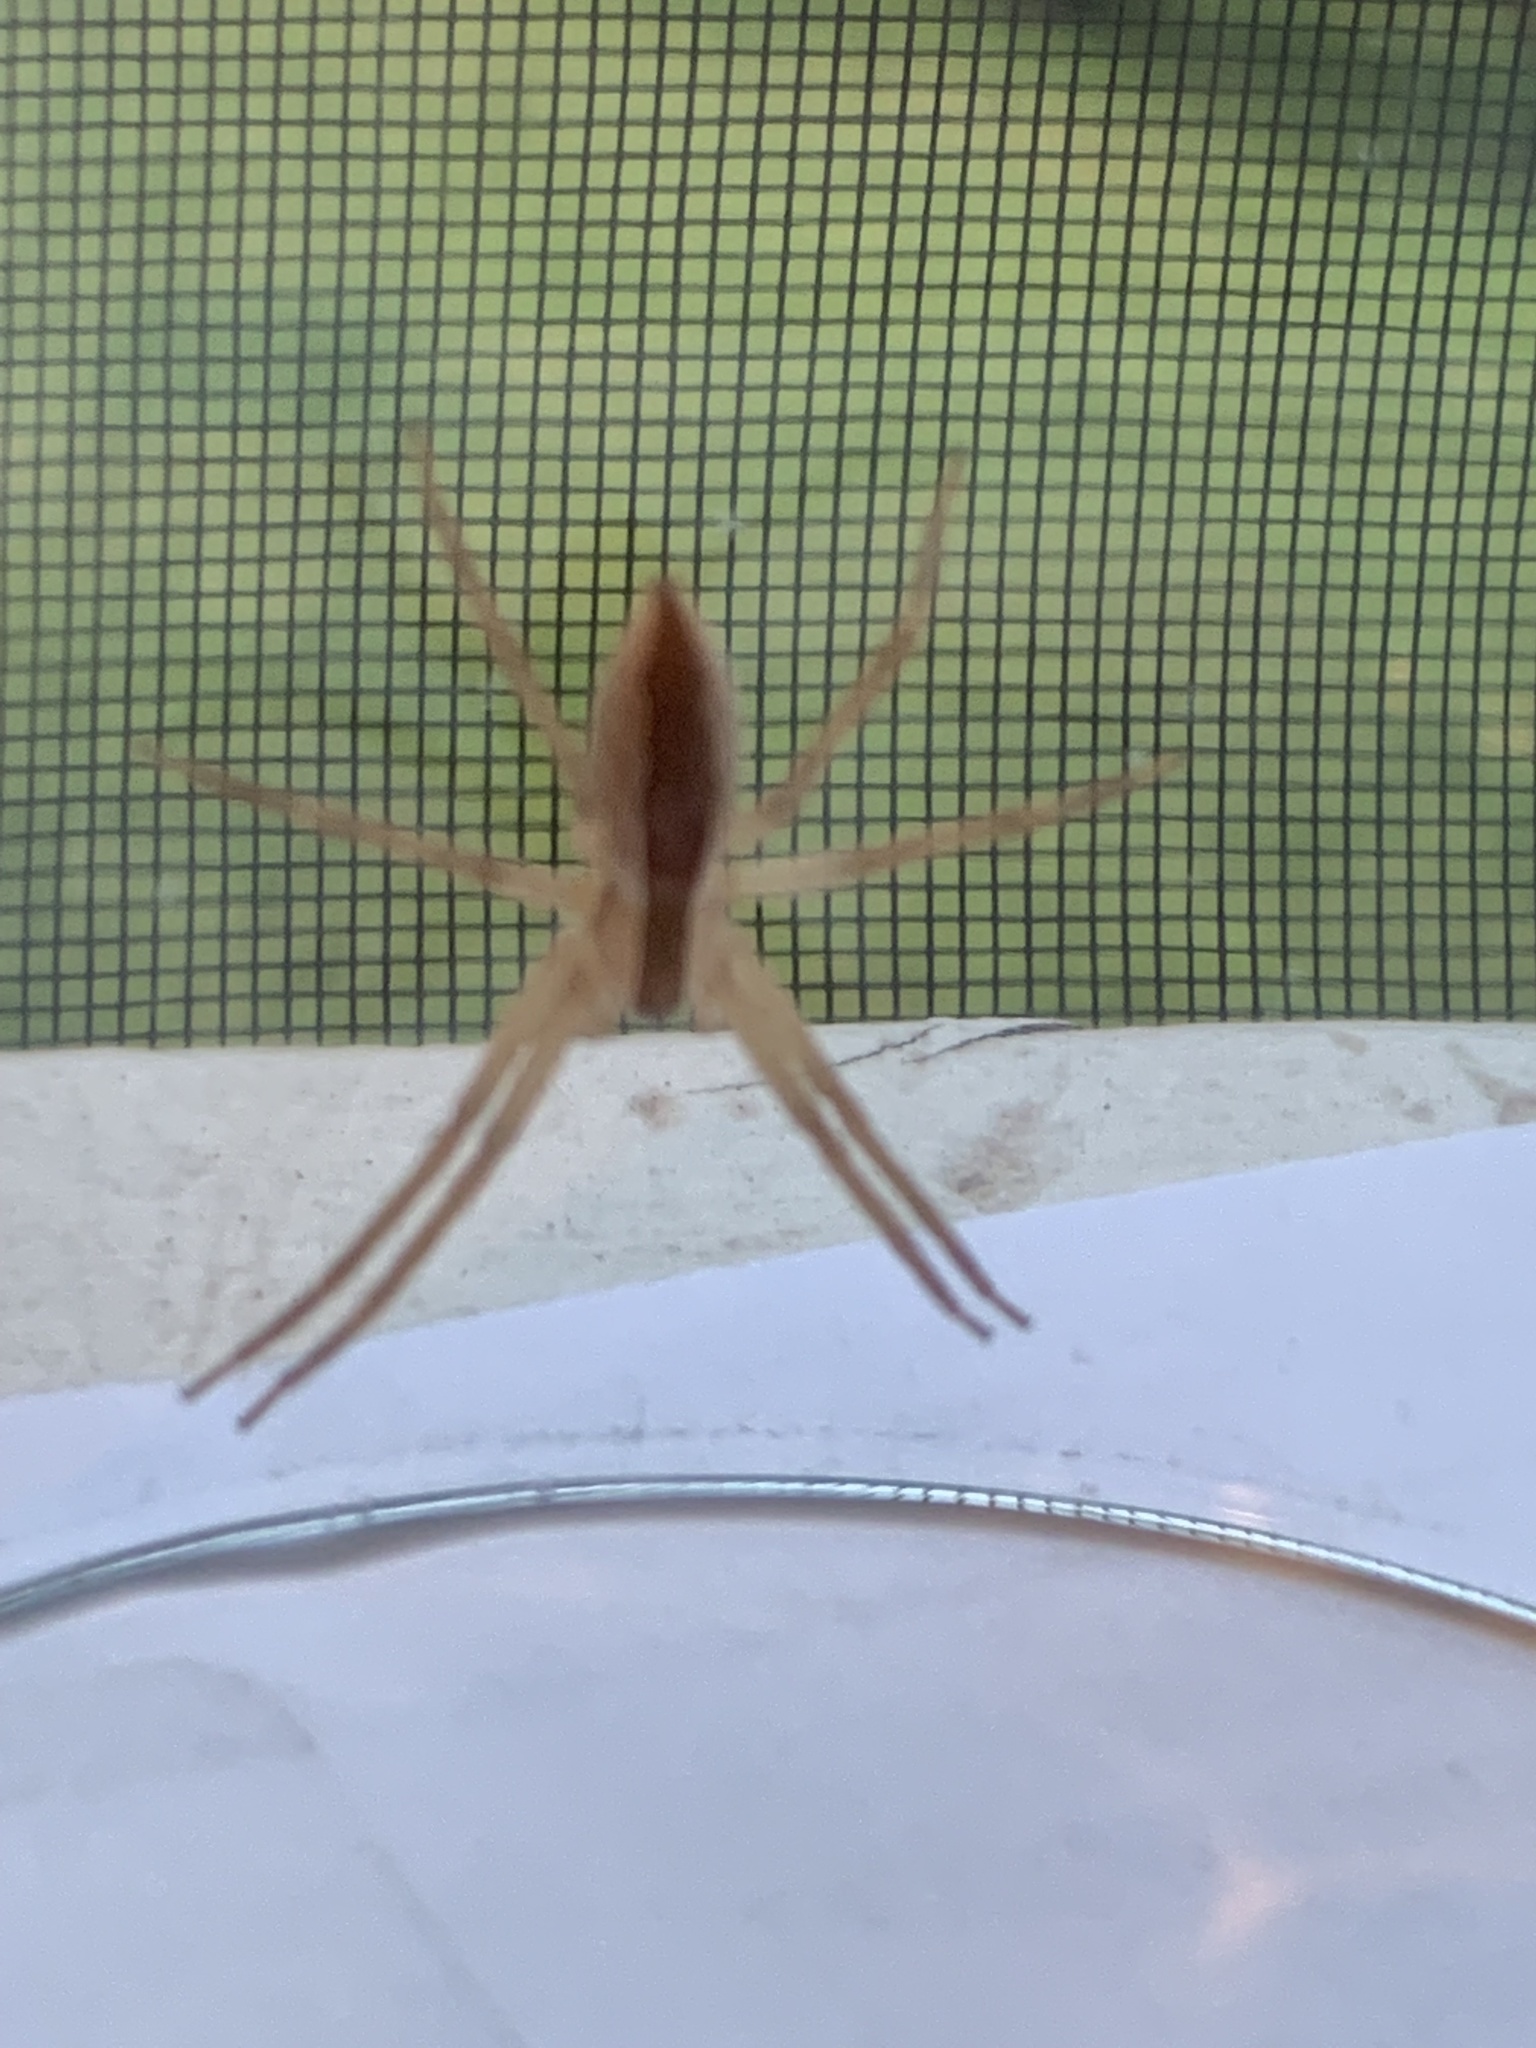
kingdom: Animalia
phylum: Arthropoda
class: Arachnida
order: Araneae
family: Pisauridae
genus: Pisaurina
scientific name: Pisaurina mira
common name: American nursery web spider
